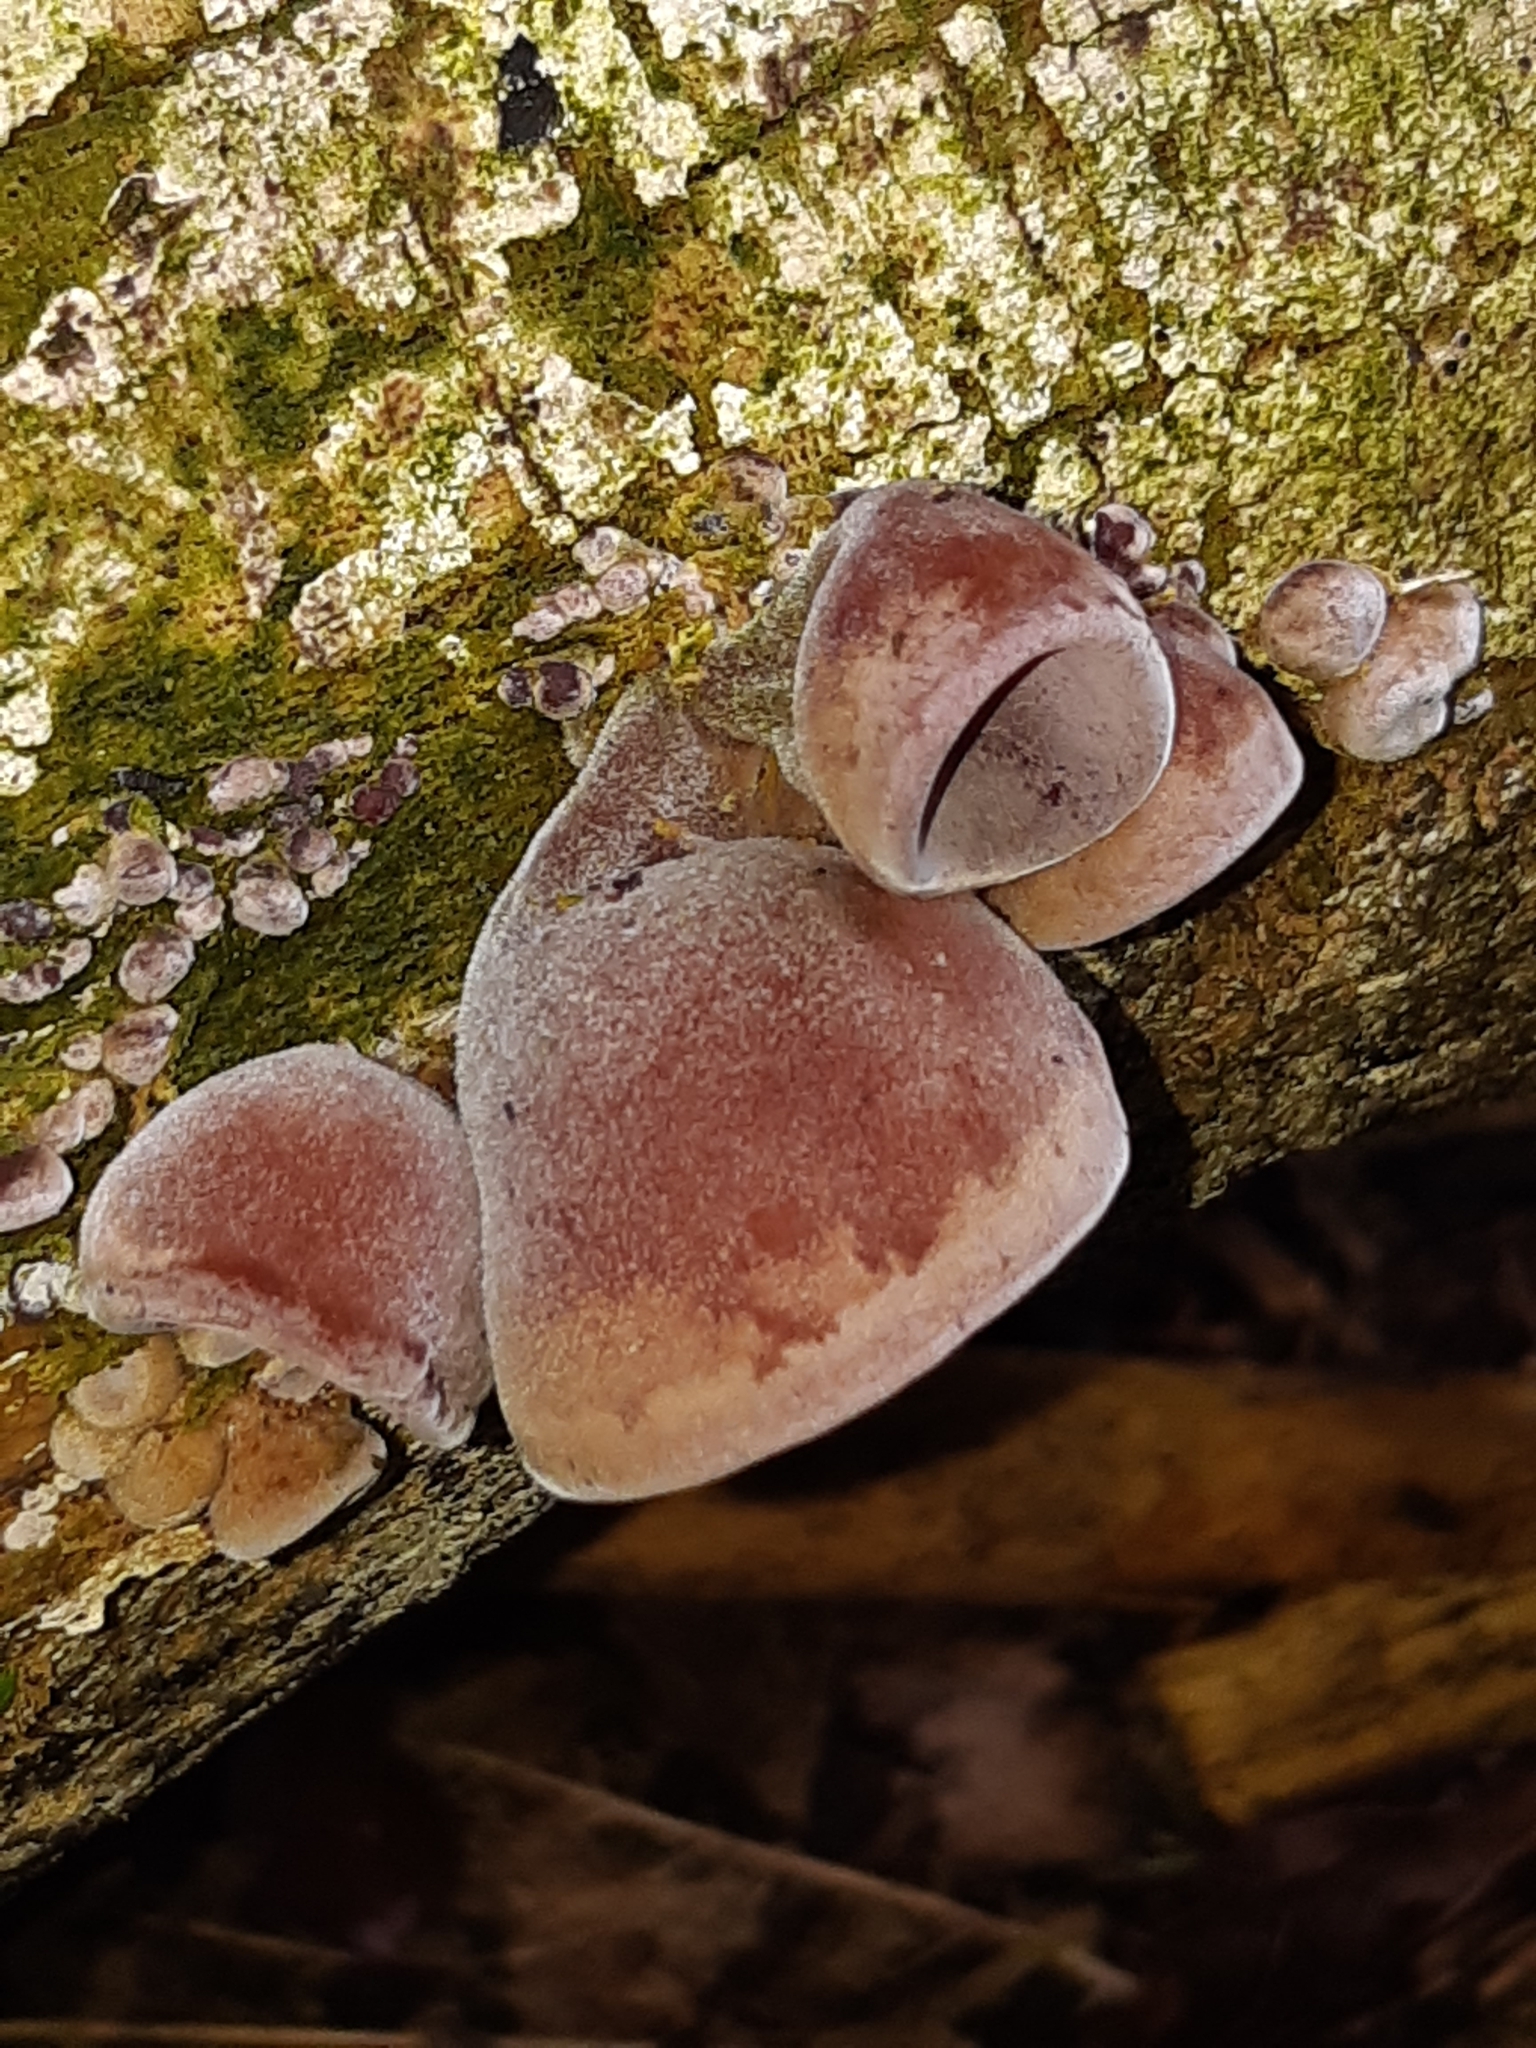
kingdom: Fungi
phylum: Basidiomycota
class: Agaricomycetes
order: Auriculariales
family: Auriculariaceae
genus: Auricularia
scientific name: Auricularia cornea
